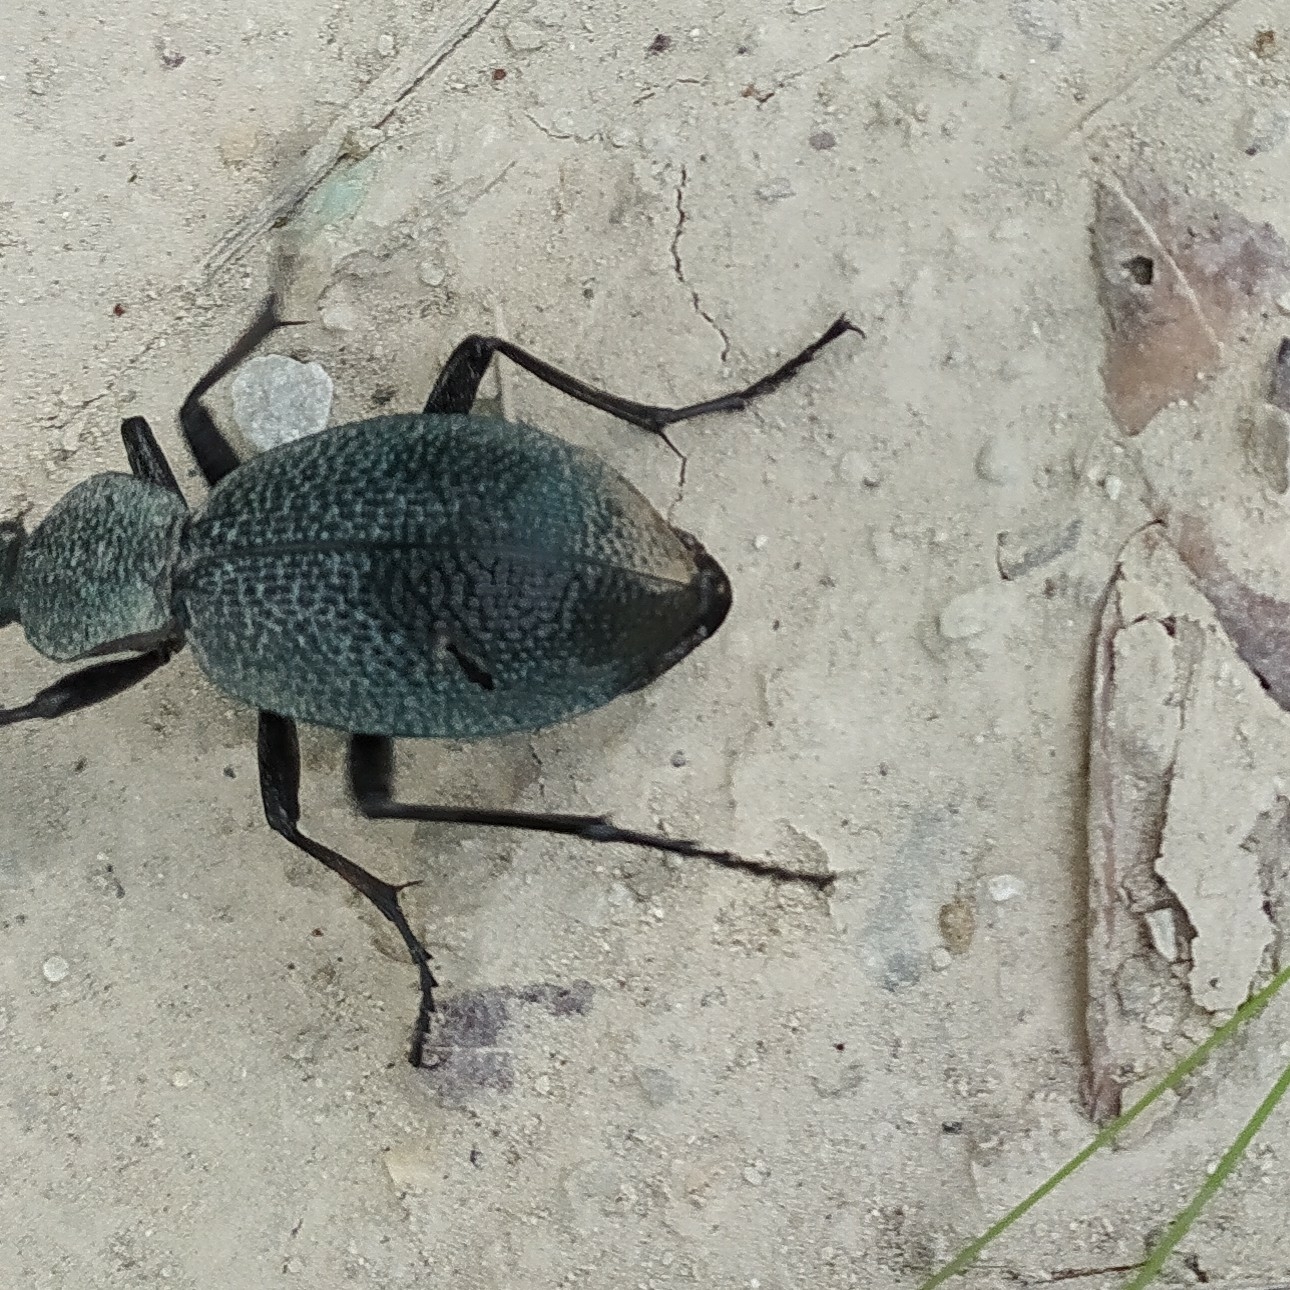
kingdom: Animalia
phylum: Arthropoda
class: Insecta
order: Coleoptera
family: Carabidae
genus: Carabus
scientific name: Carabus scabrosus
